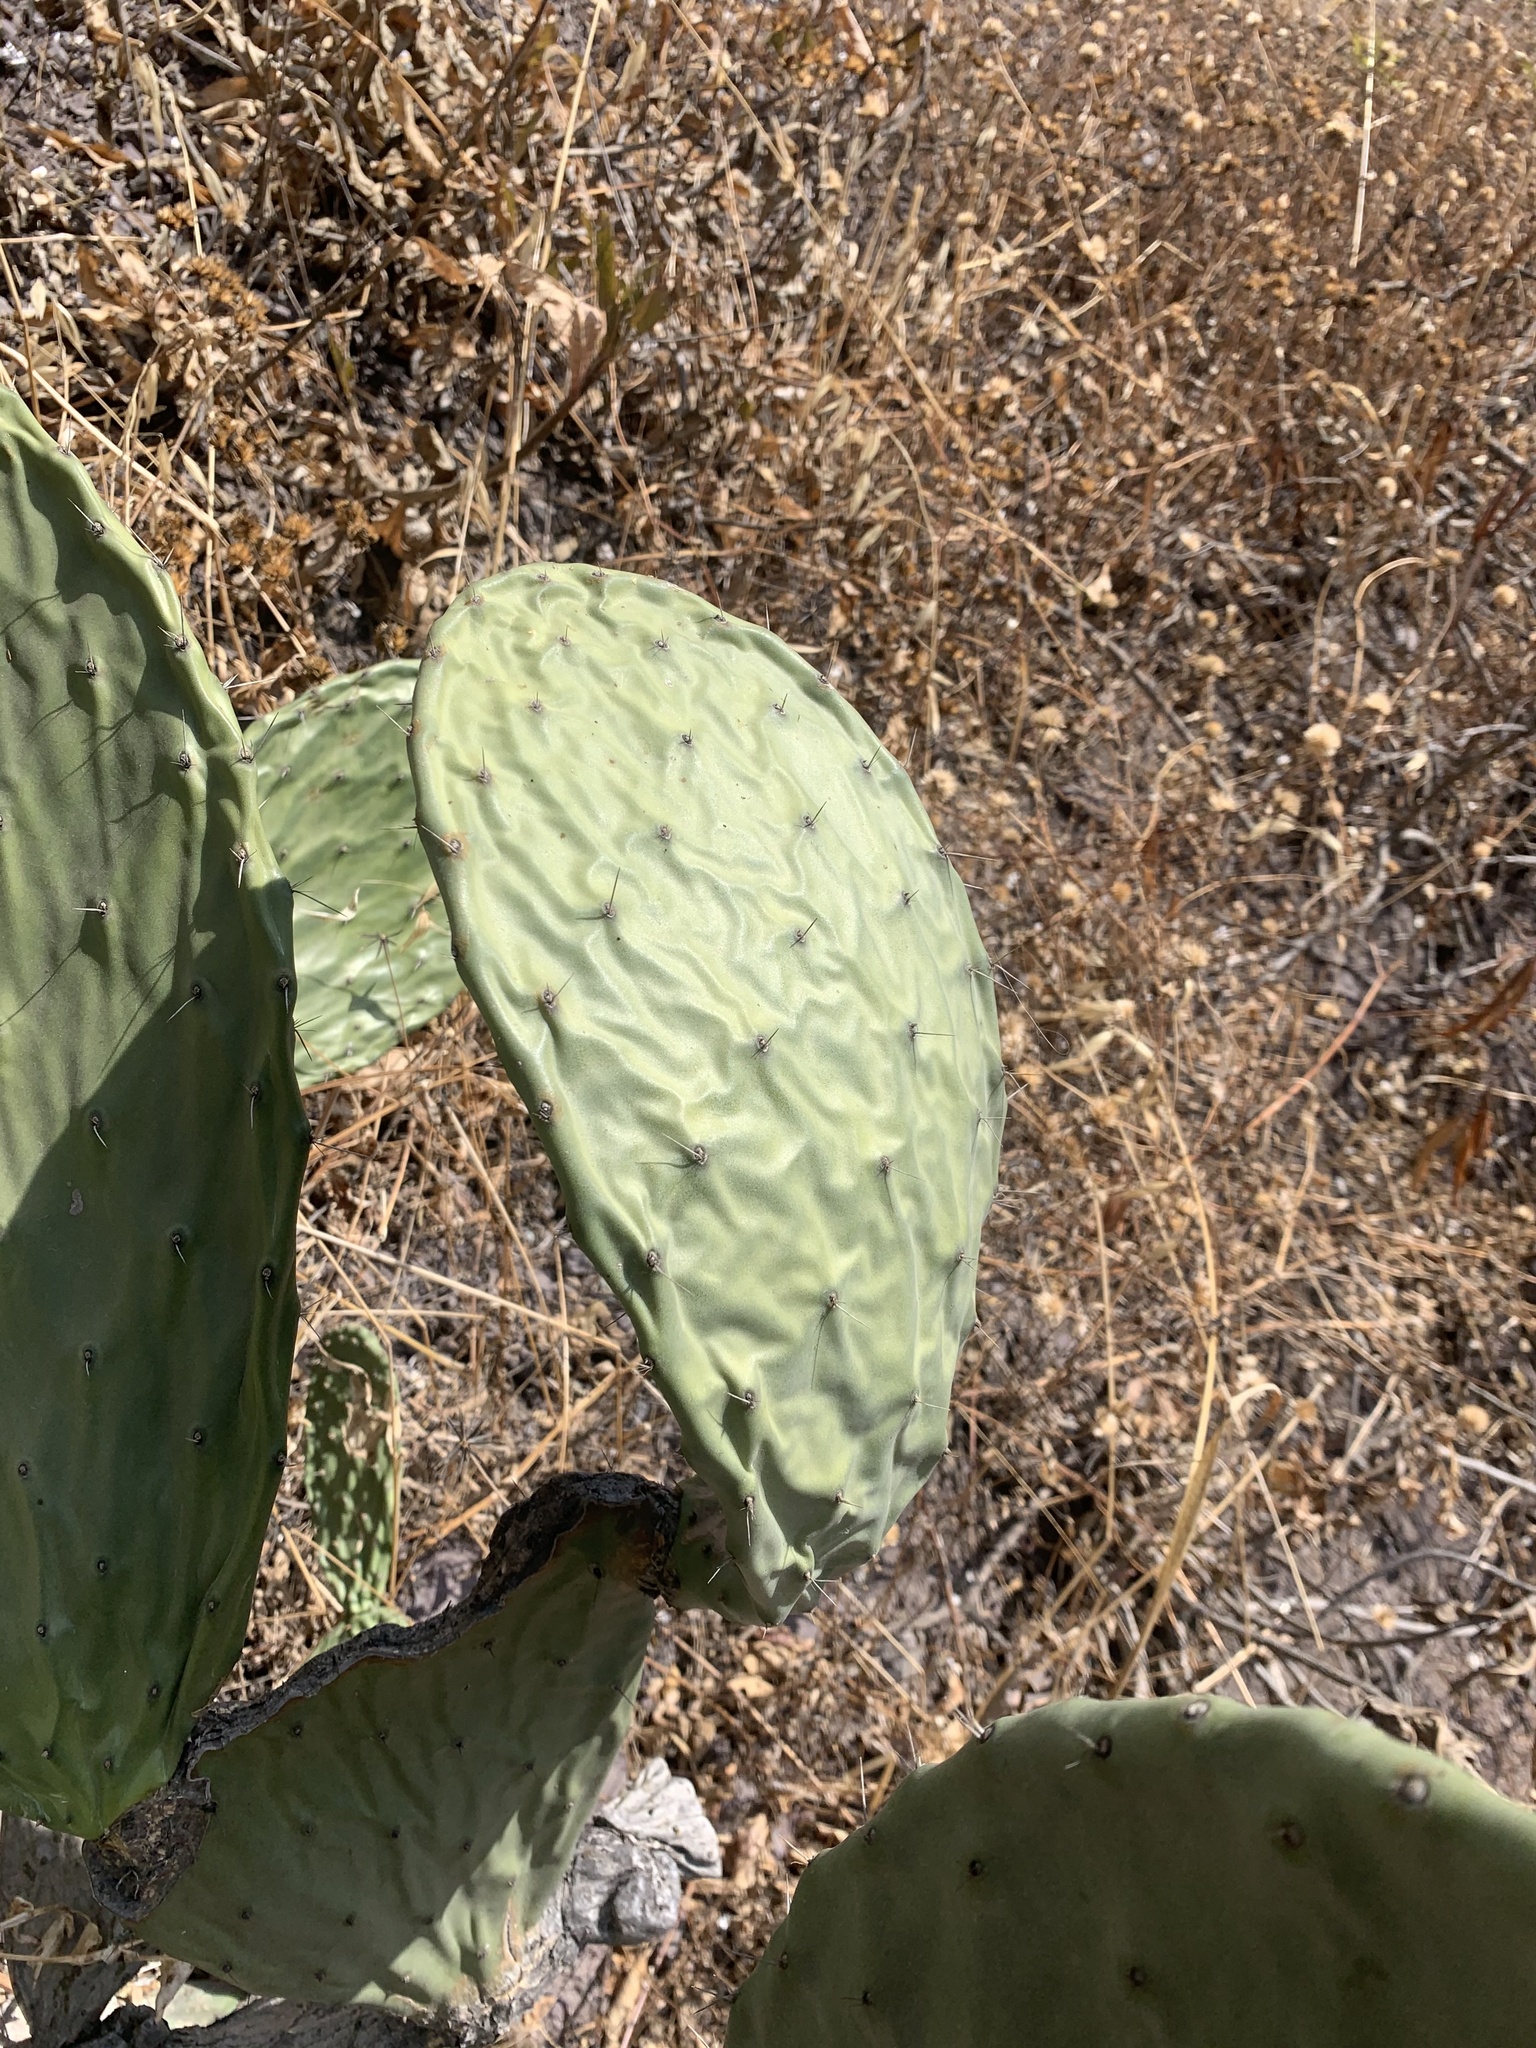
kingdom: Plantae
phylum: Tracheophyta
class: Magnoliopsida
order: Caryophyllales
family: Cactaceae
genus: Opuntia
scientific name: Opuntia ficus-indica
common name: Barbary fig
